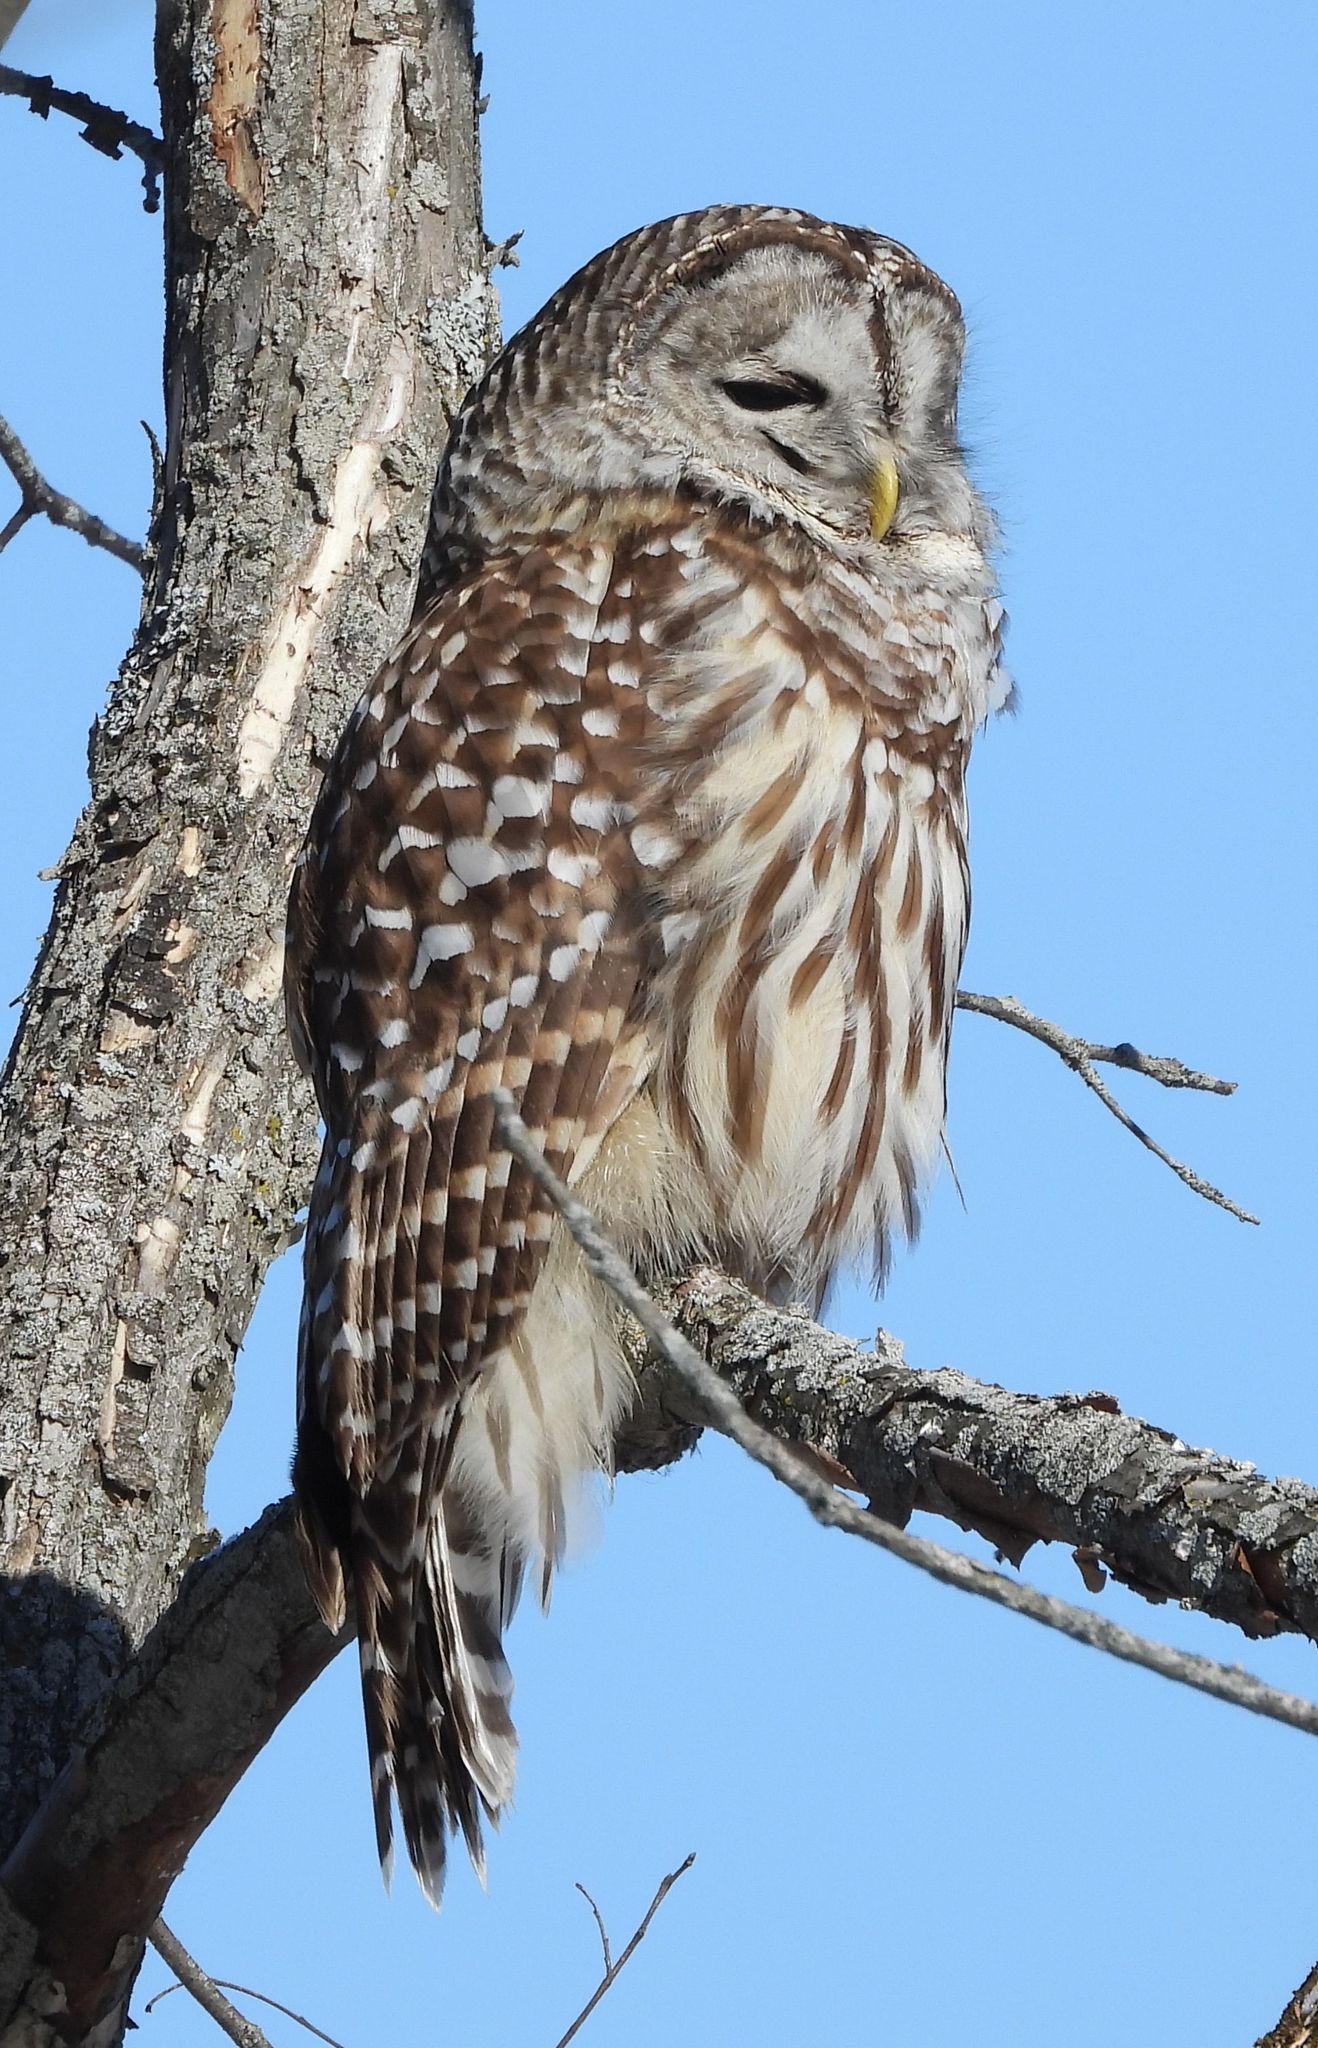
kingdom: Animalia
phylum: Chordata
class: Aves
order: Strigiformes
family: Strigidae
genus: Strix
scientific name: Strix varia
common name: Barred owl
